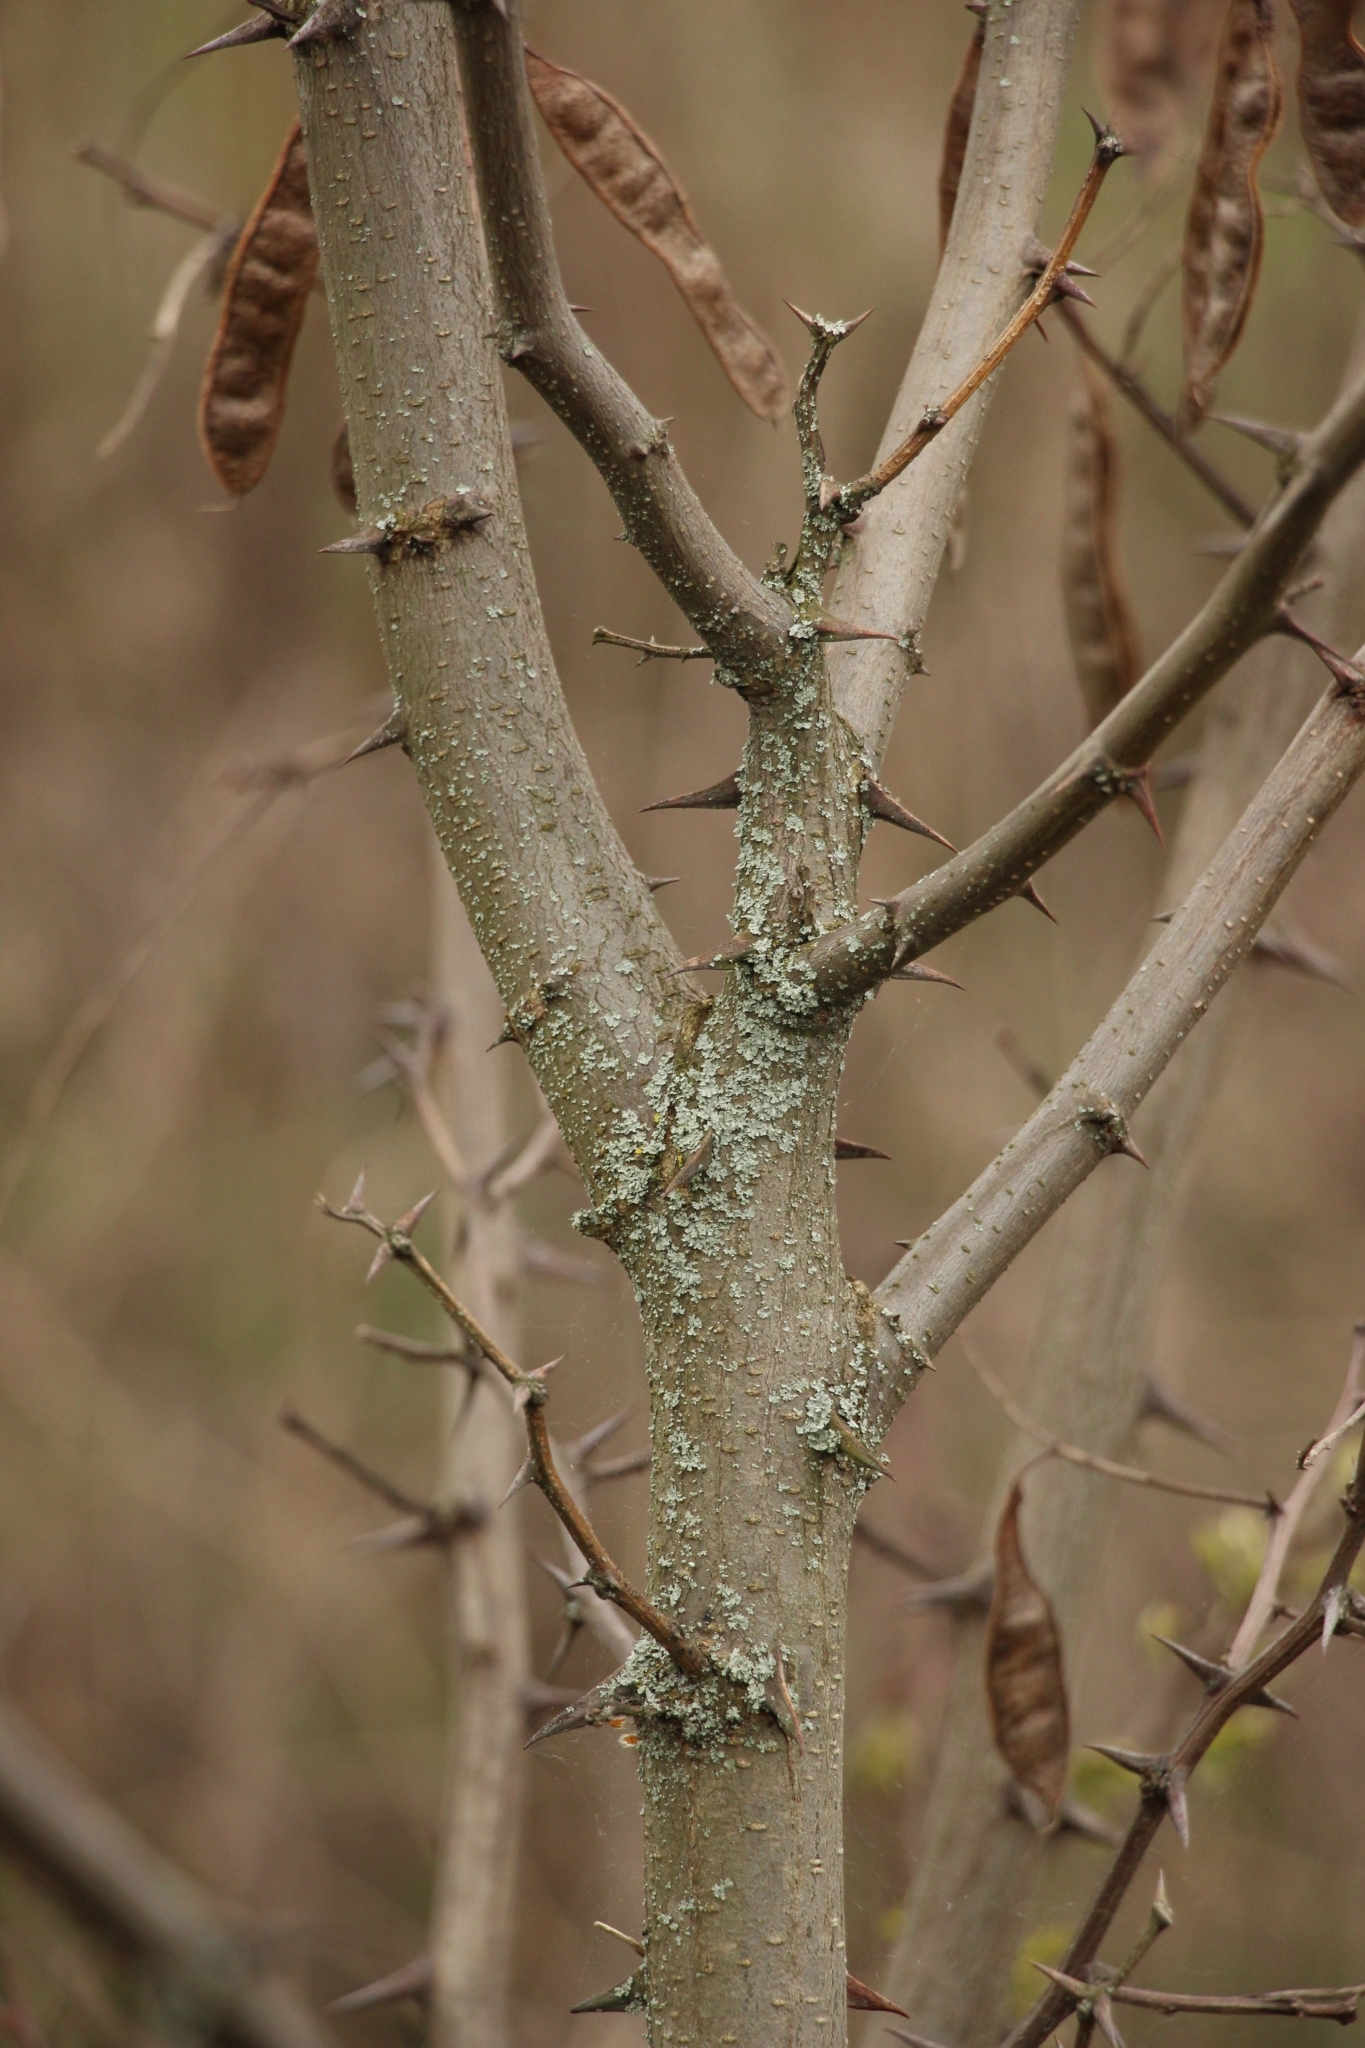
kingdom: Plantae
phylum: Tracheophyta
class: Magnoliopsida
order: Fabales
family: Fabaceae
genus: Robinia
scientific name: Robinia pseudoacacia
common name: Black locust
